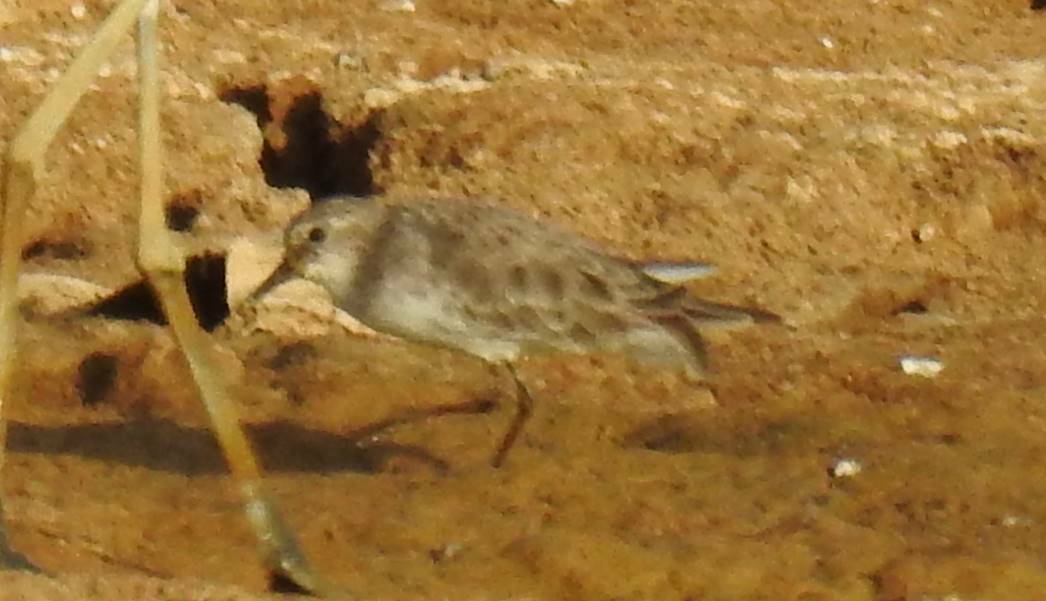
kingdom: Animalia
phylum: Chordata
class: Aves
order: Charadriiformes
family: Scolopacidae
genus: Calidris
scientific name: Calidris minuta
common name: Little stint
